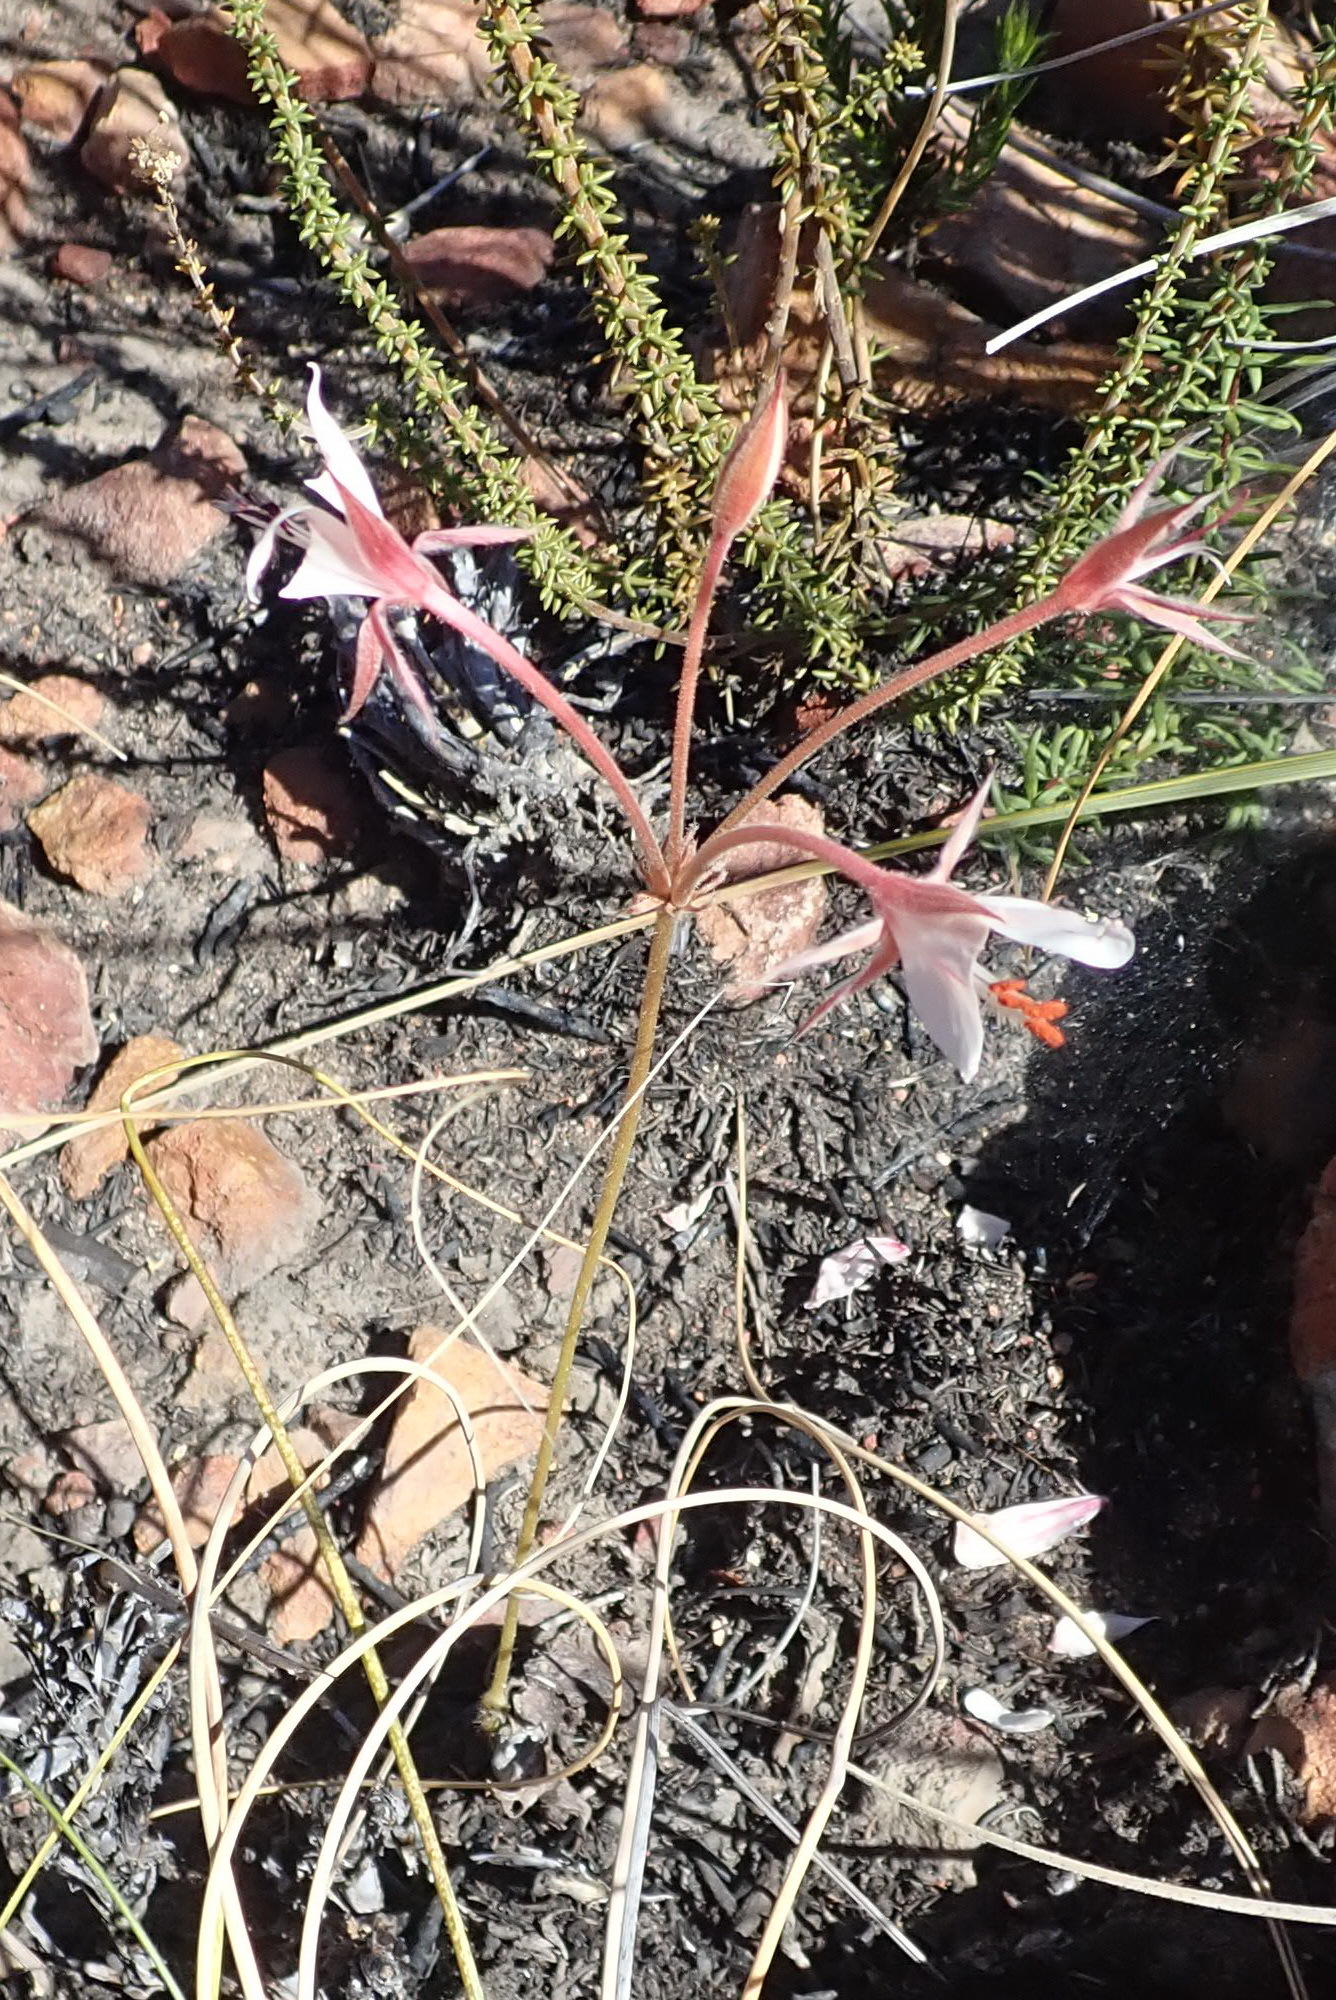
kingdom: Plantae
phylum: Tracheophyta
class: Magnoliopsida
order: Geraniales
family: Geraniaceae
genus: Pelargonium
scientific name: Pelargonium carneum
